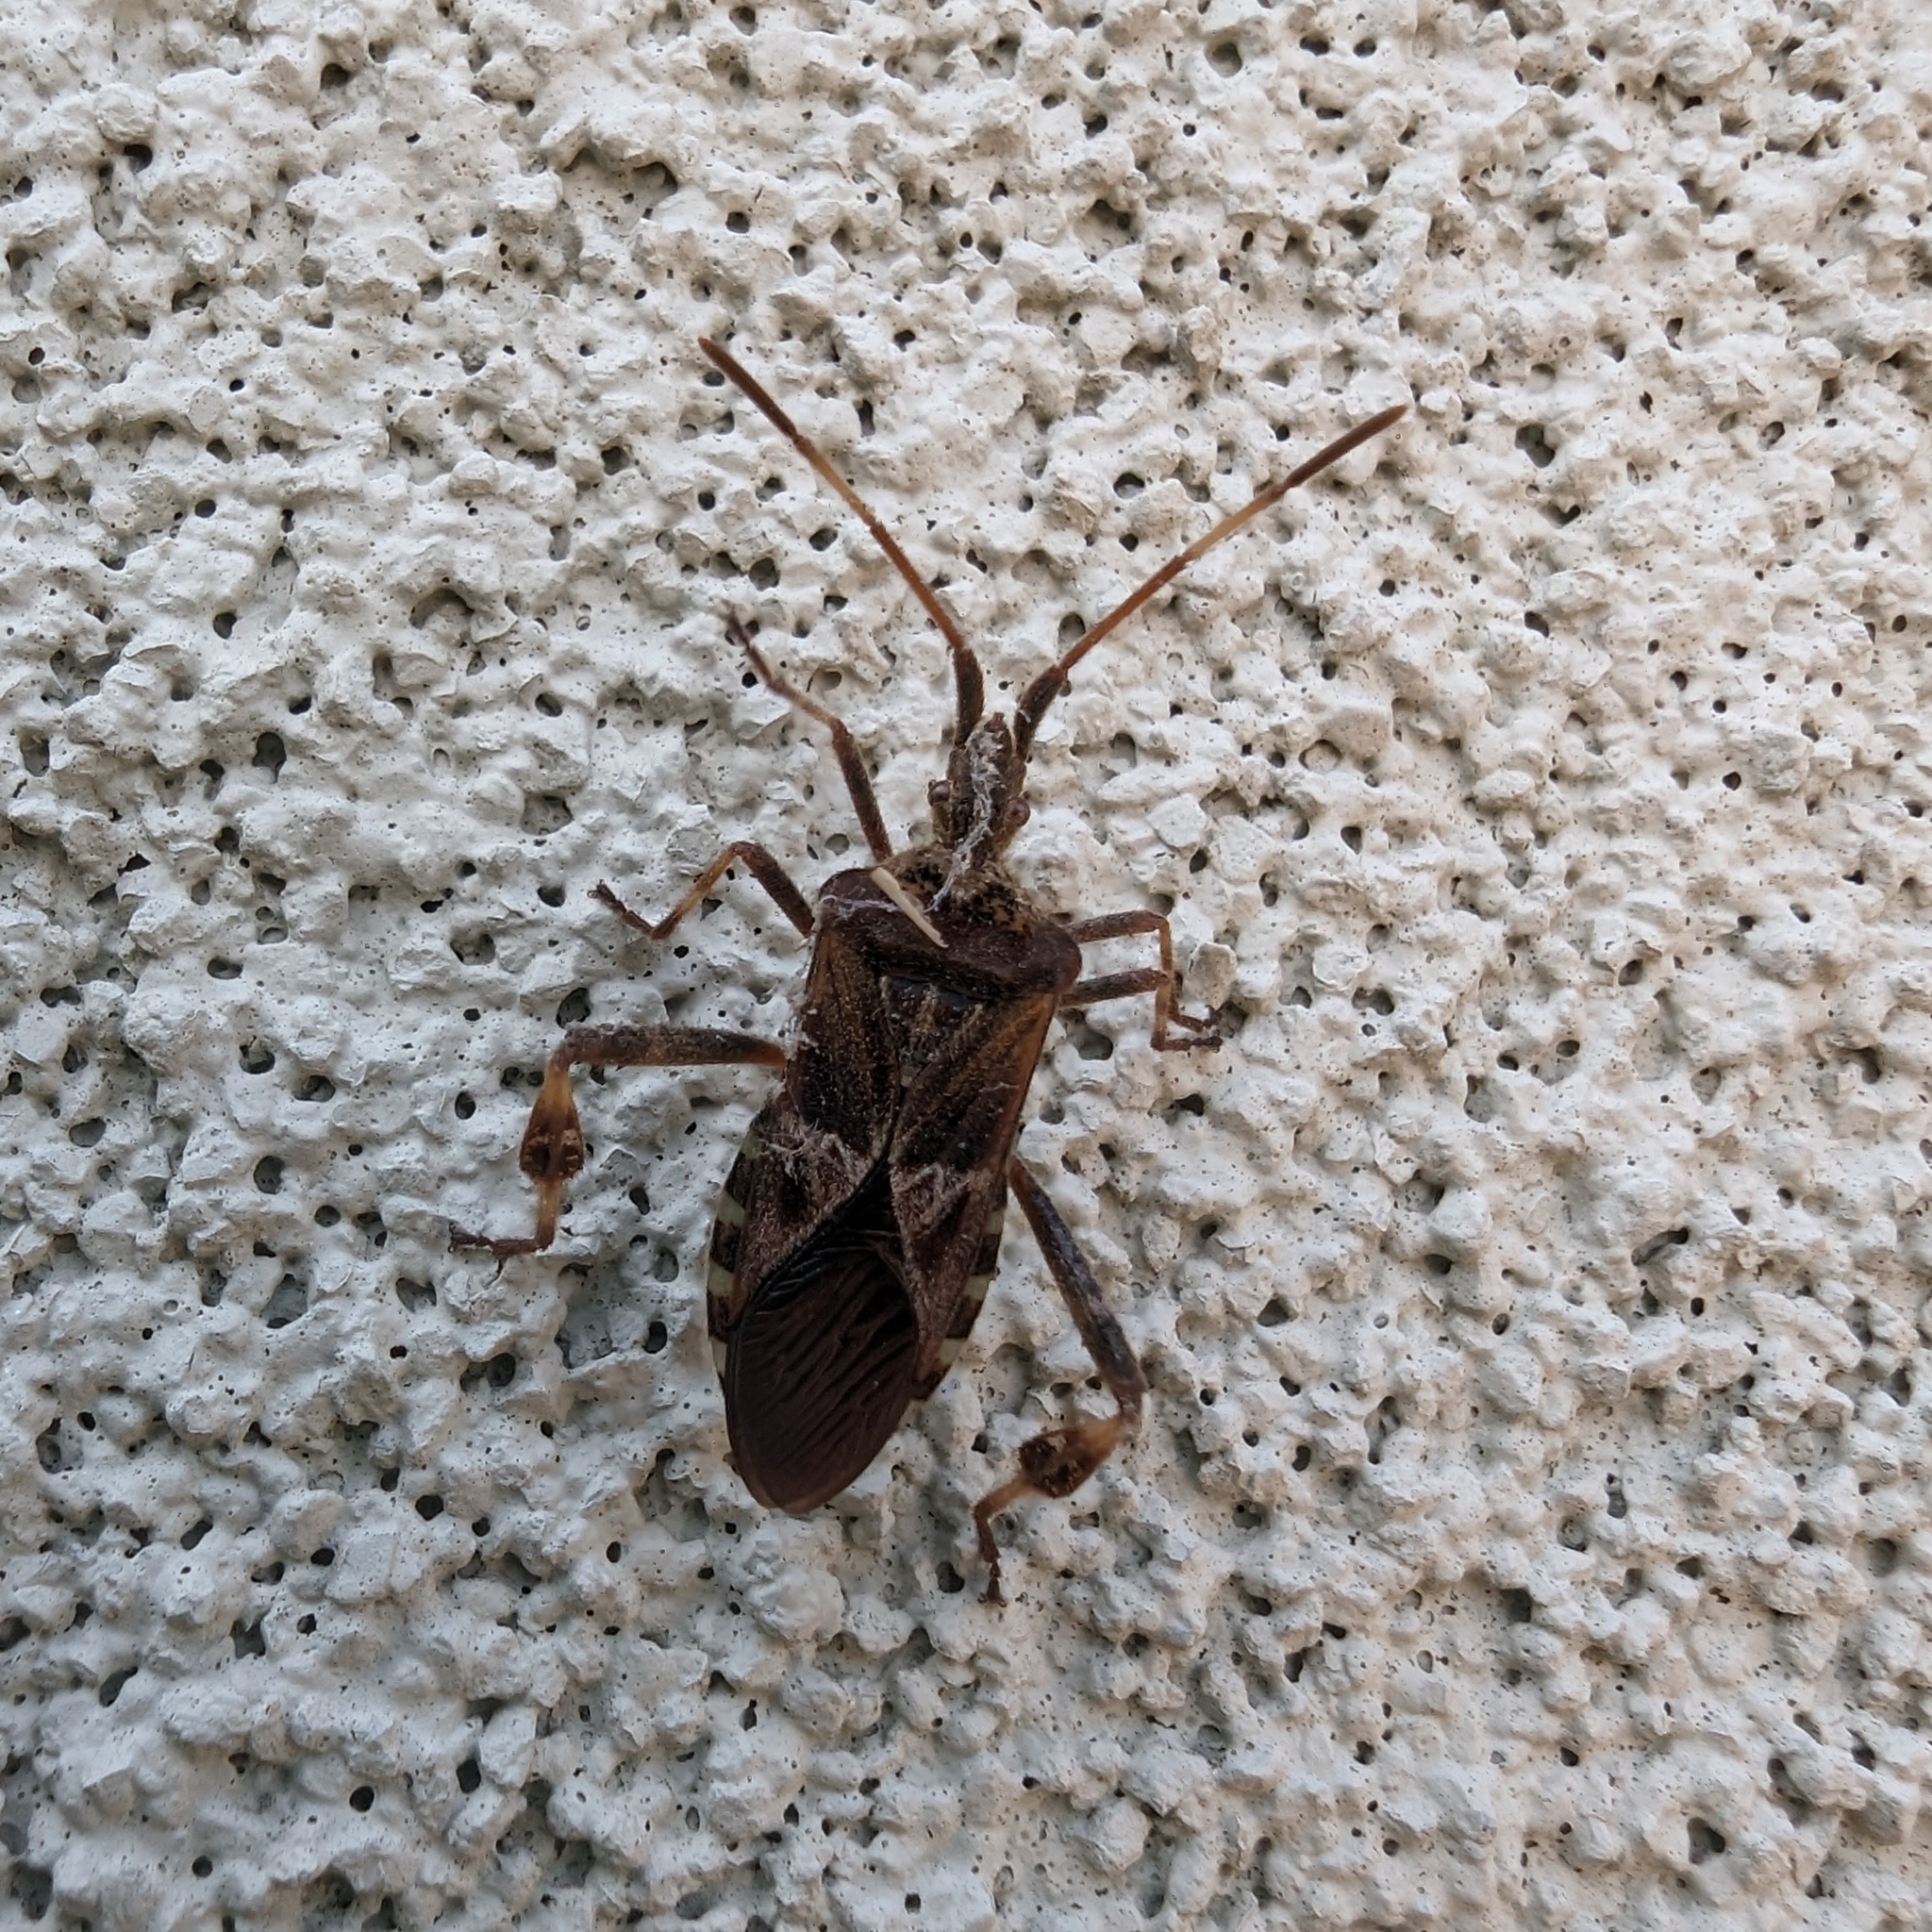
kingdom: Animalia
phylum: Arthropoda
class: Insecta
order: Hemiptera
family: Coreidae
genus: Leptoglossus
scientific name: Leptoglossus occidentalis
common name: Western conifer-seed bug
